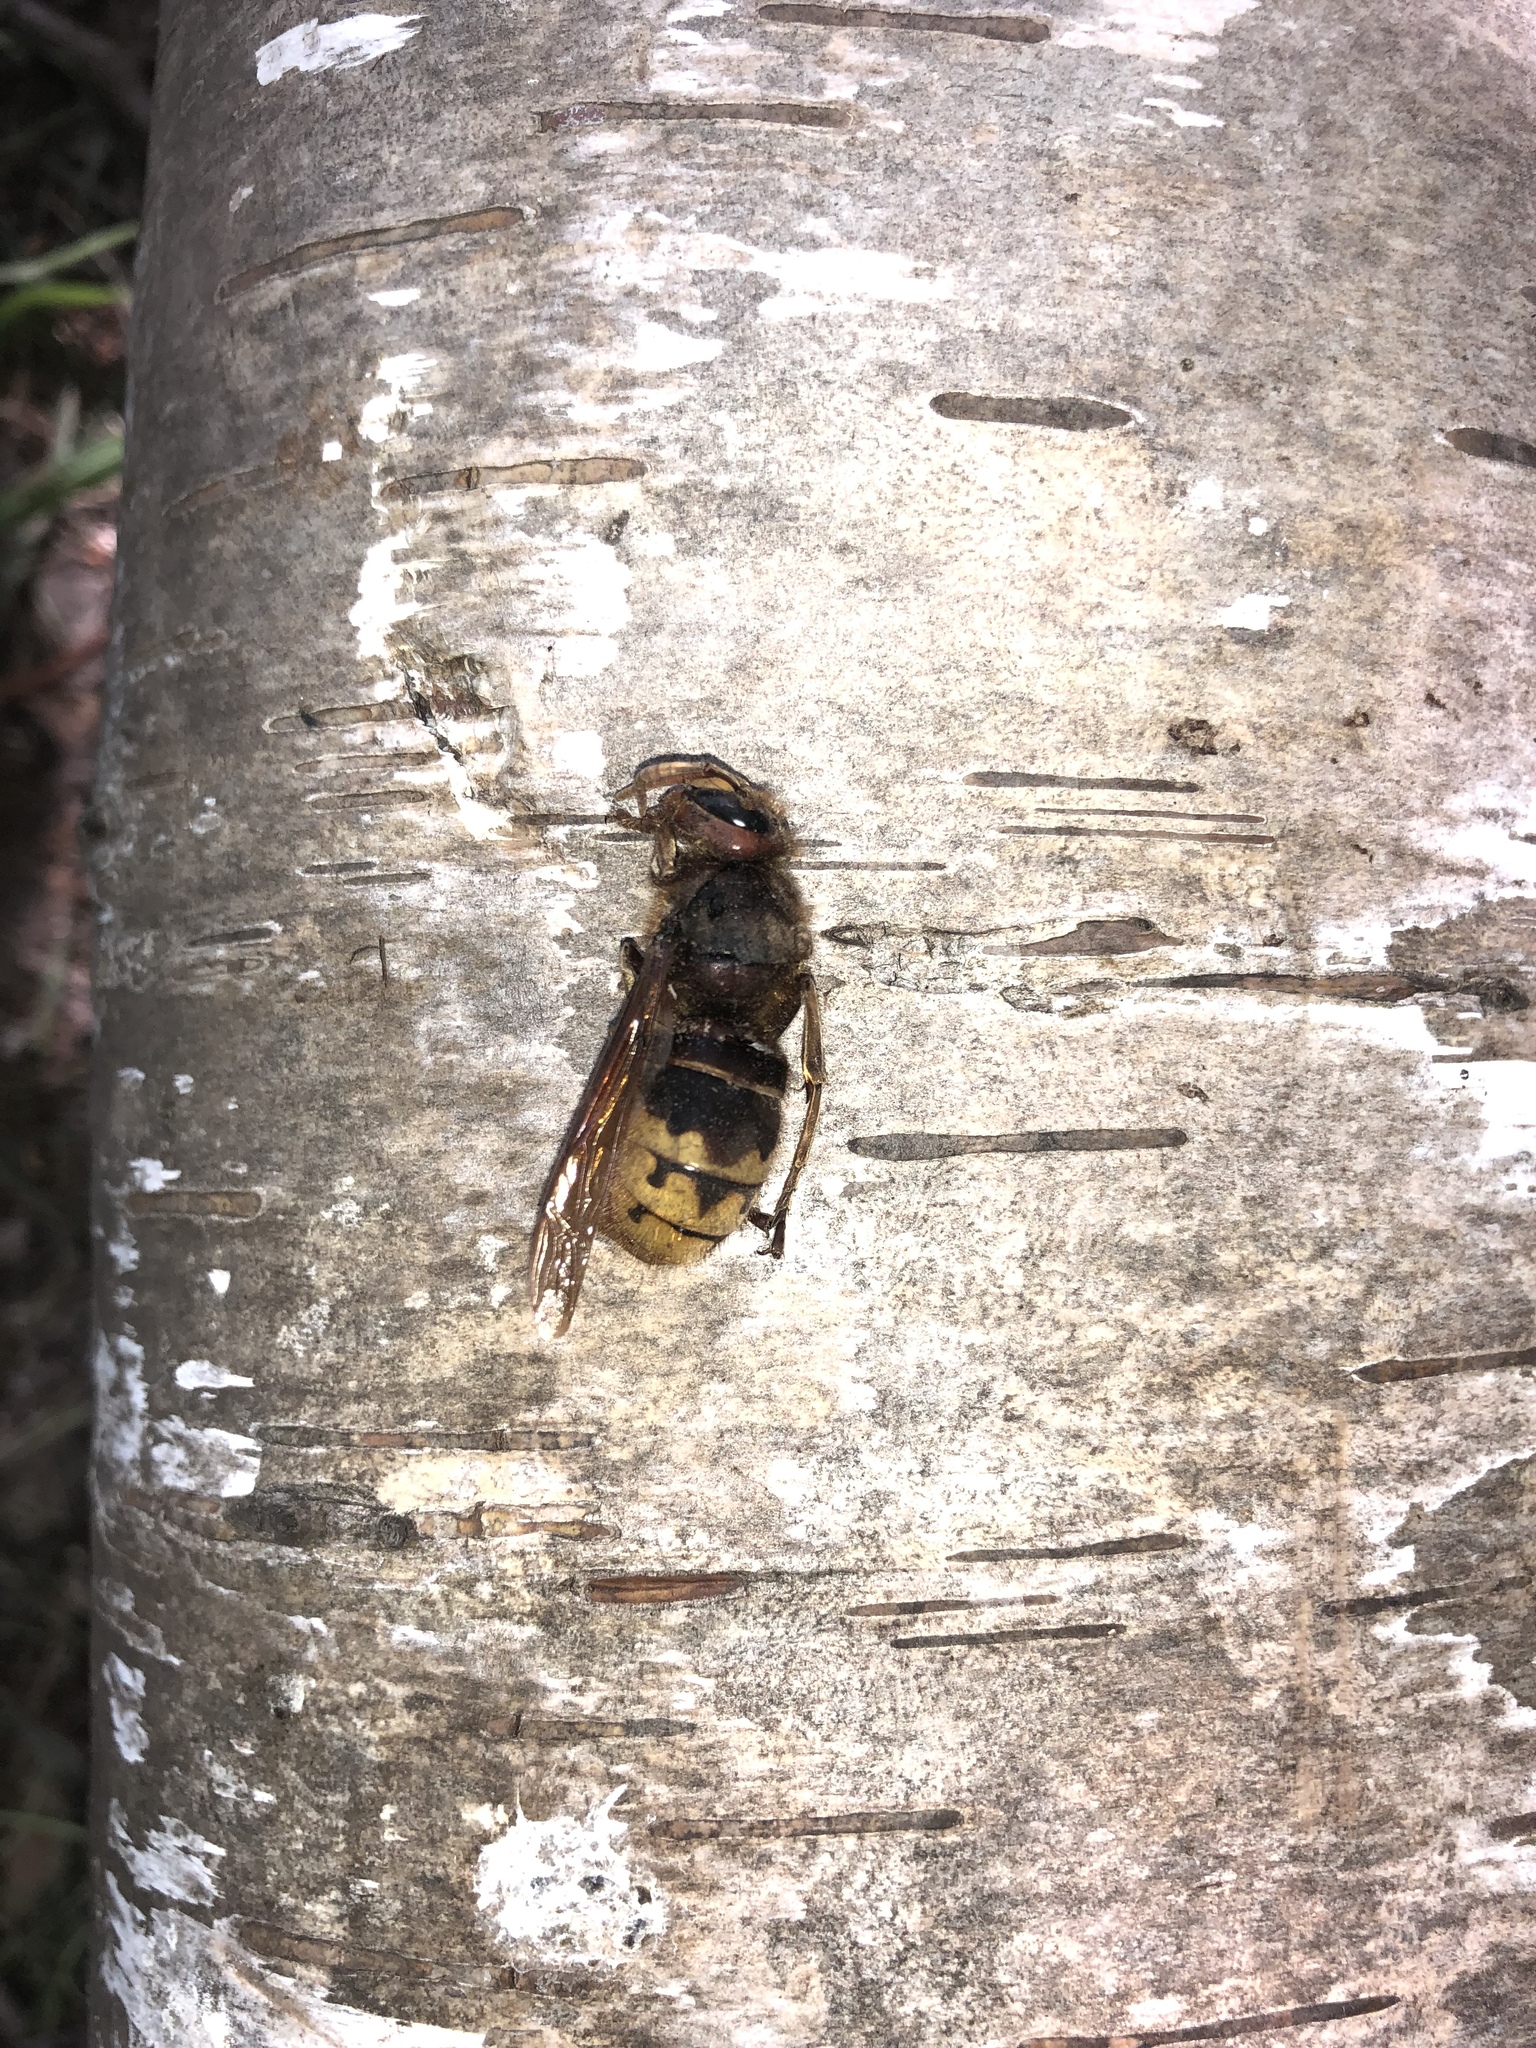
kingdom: Animalia
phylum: Arthropoda
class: Insecta
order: Hymenoptera
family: Vespidae
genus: Vespa
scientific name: Vespa crabro
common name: Hornet
